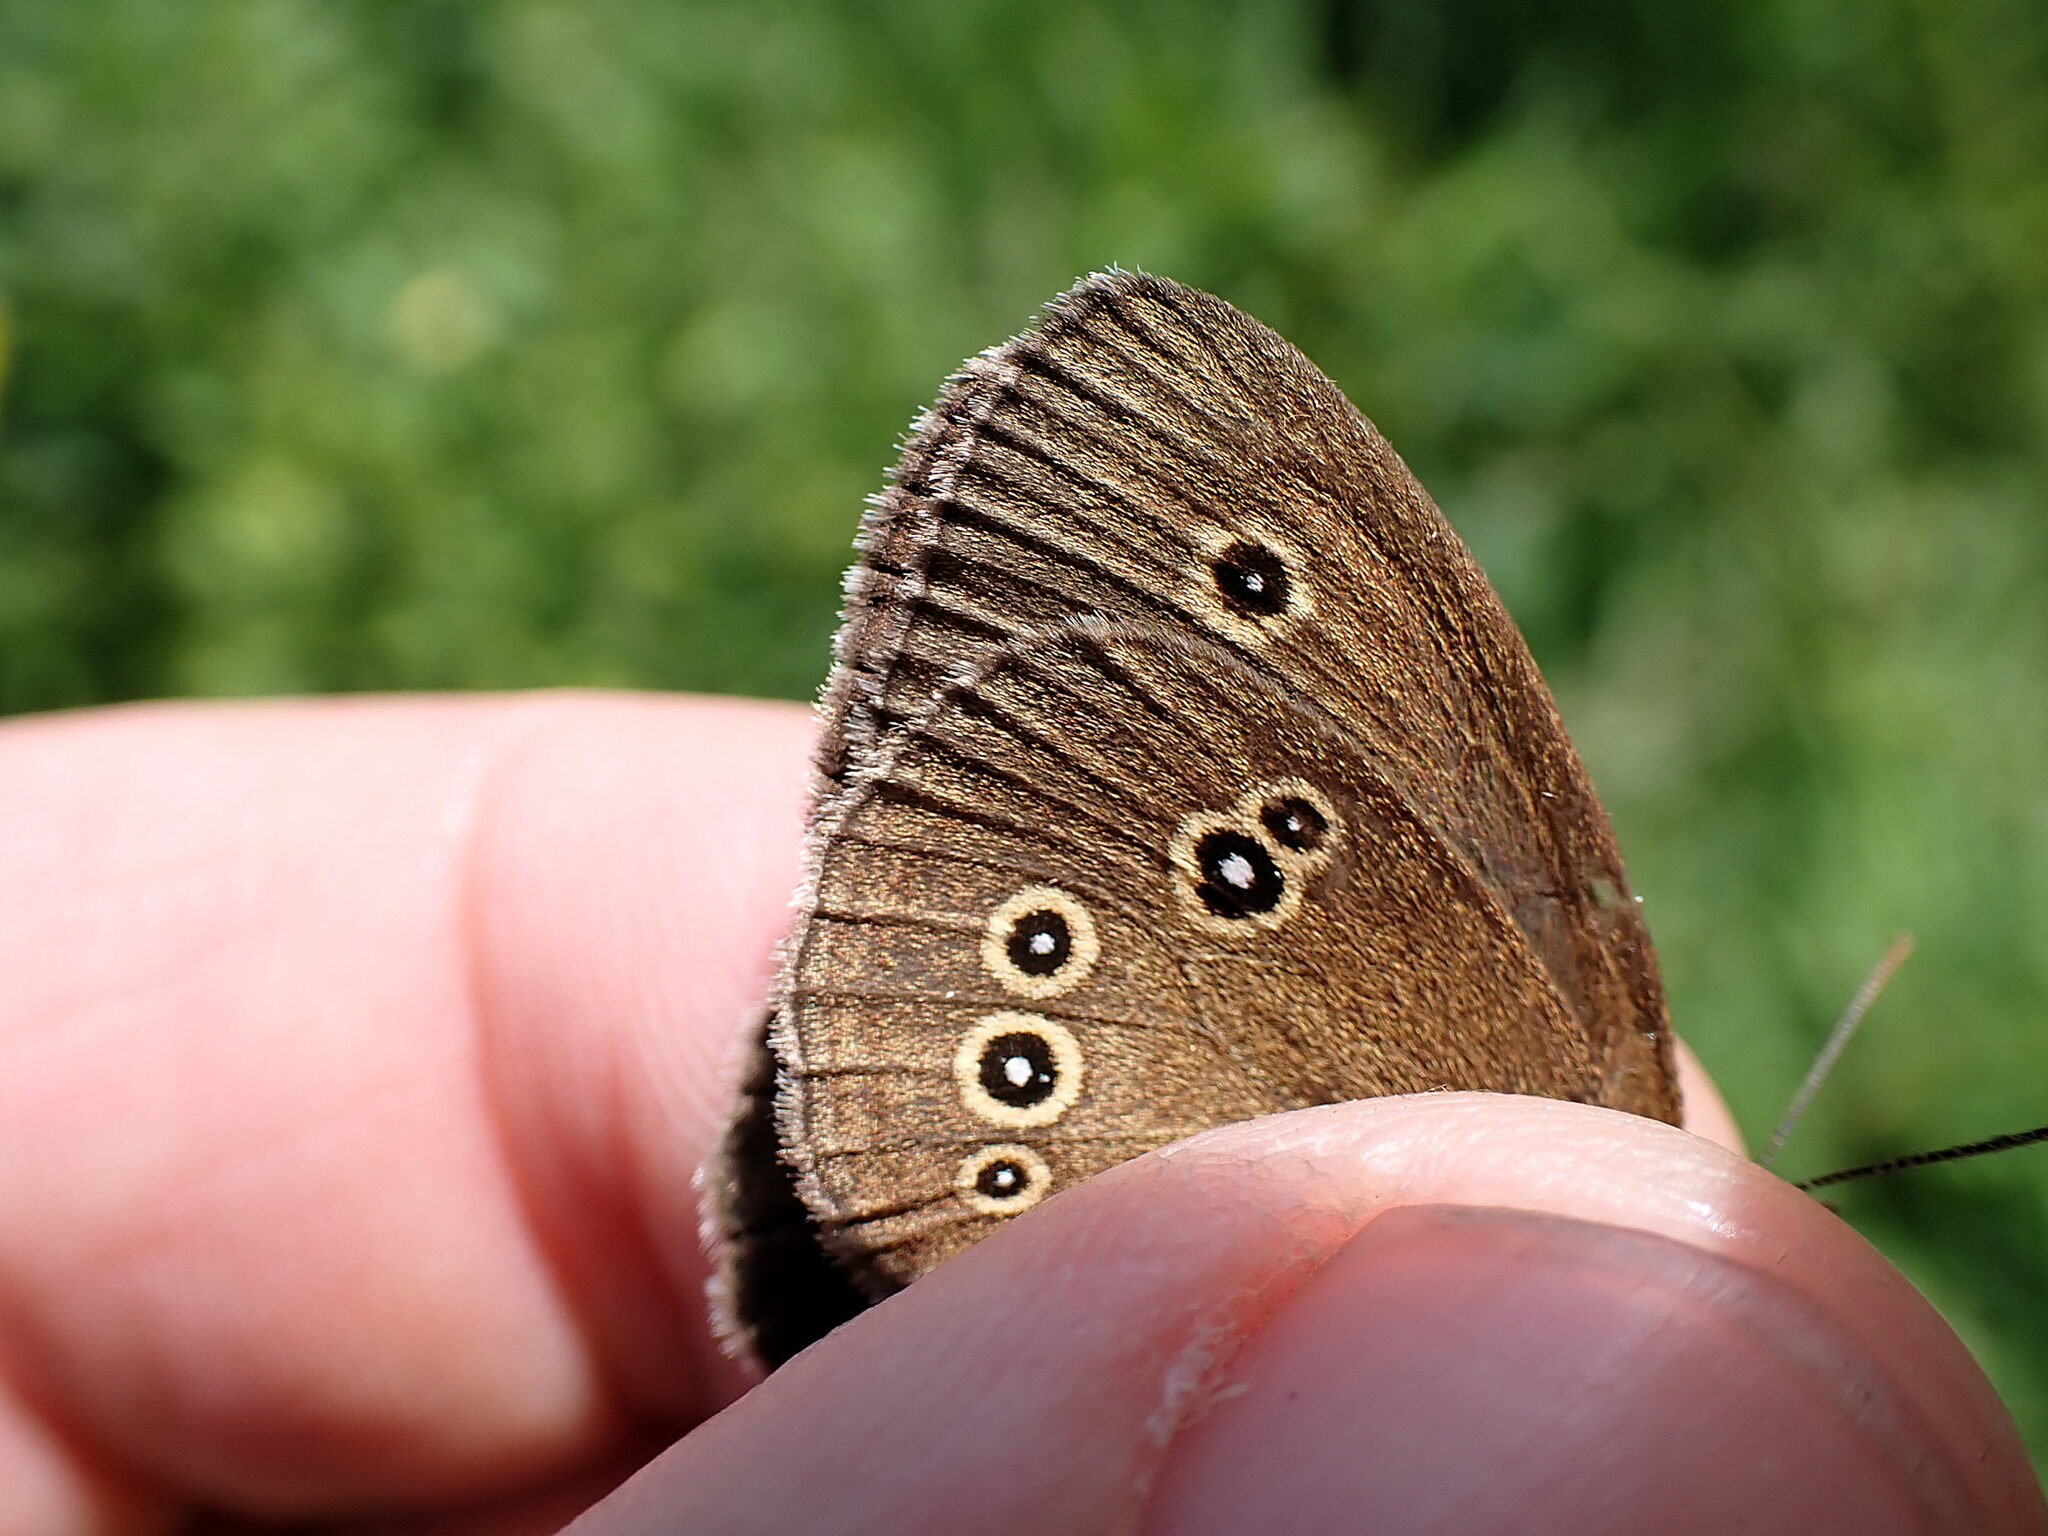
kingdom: Animalia
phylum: Arthropoda
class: Insecta
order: Lepidoptera
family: Nymphalidae
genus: Aphantopus
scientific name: Aphantopus hyperantus
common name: Ringlet
